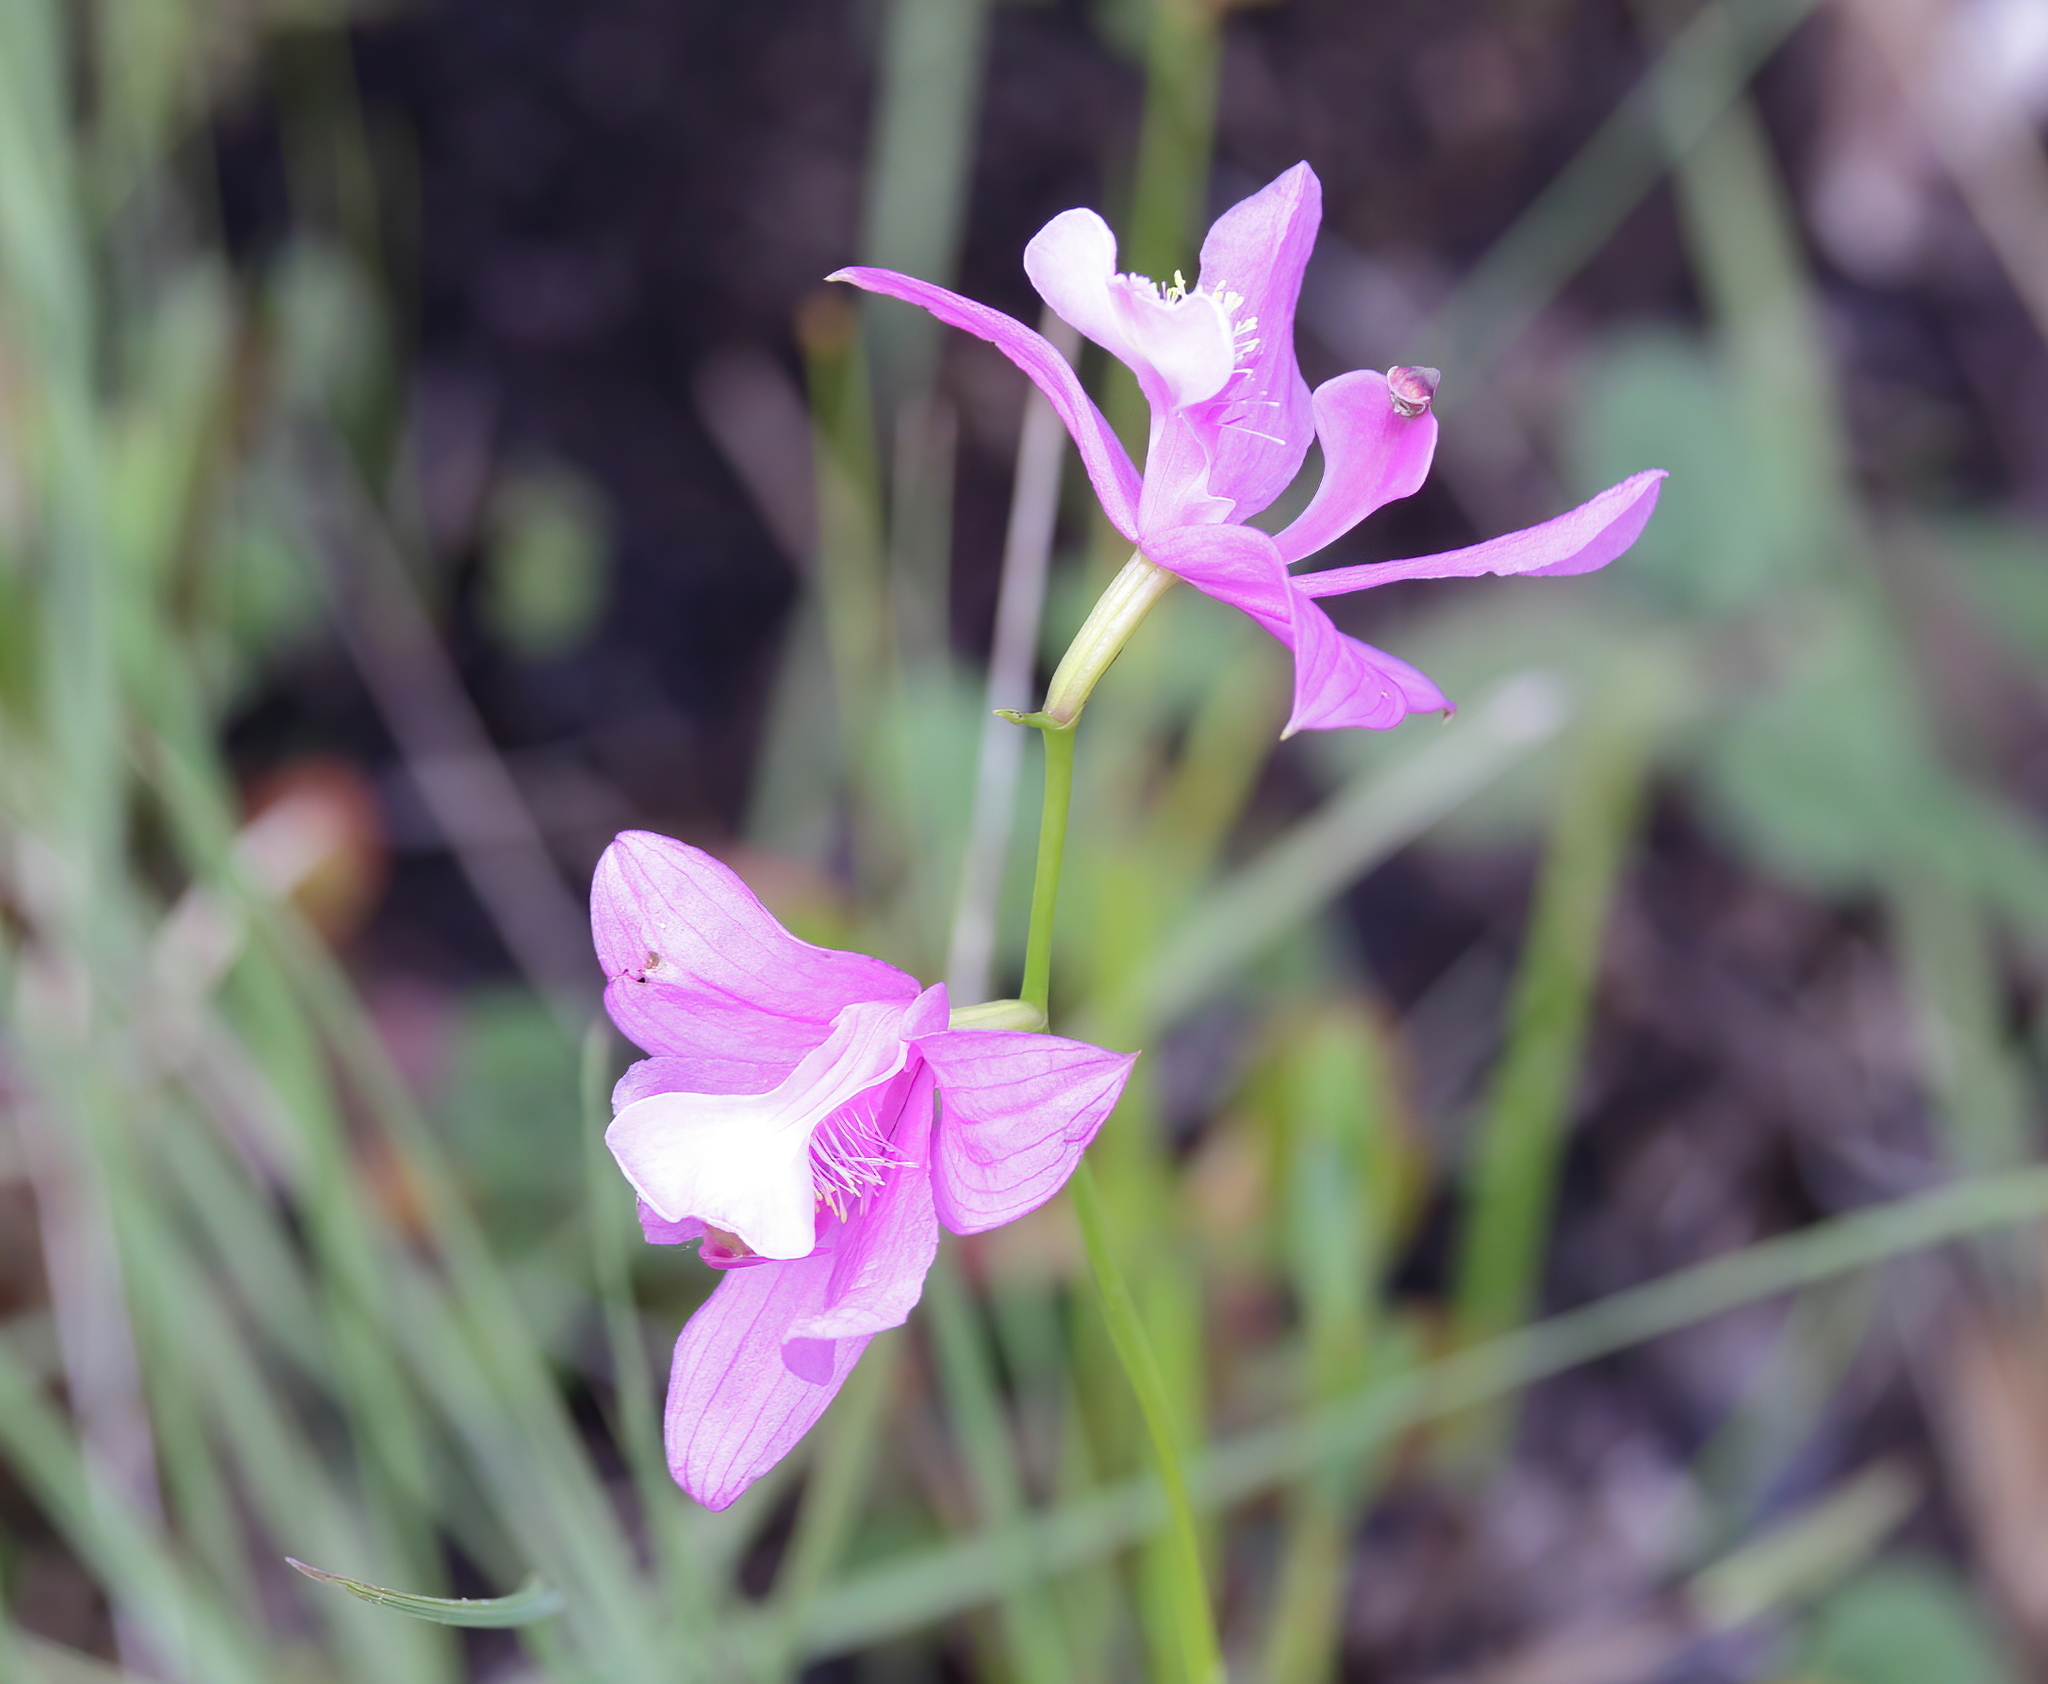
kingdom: Plantae
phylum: Tracheophyta
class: Liliopsida
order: Asparagales
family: Orchidaceae
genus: Calopogon
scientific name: Calopogon tuberosus
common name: Grass-pink
